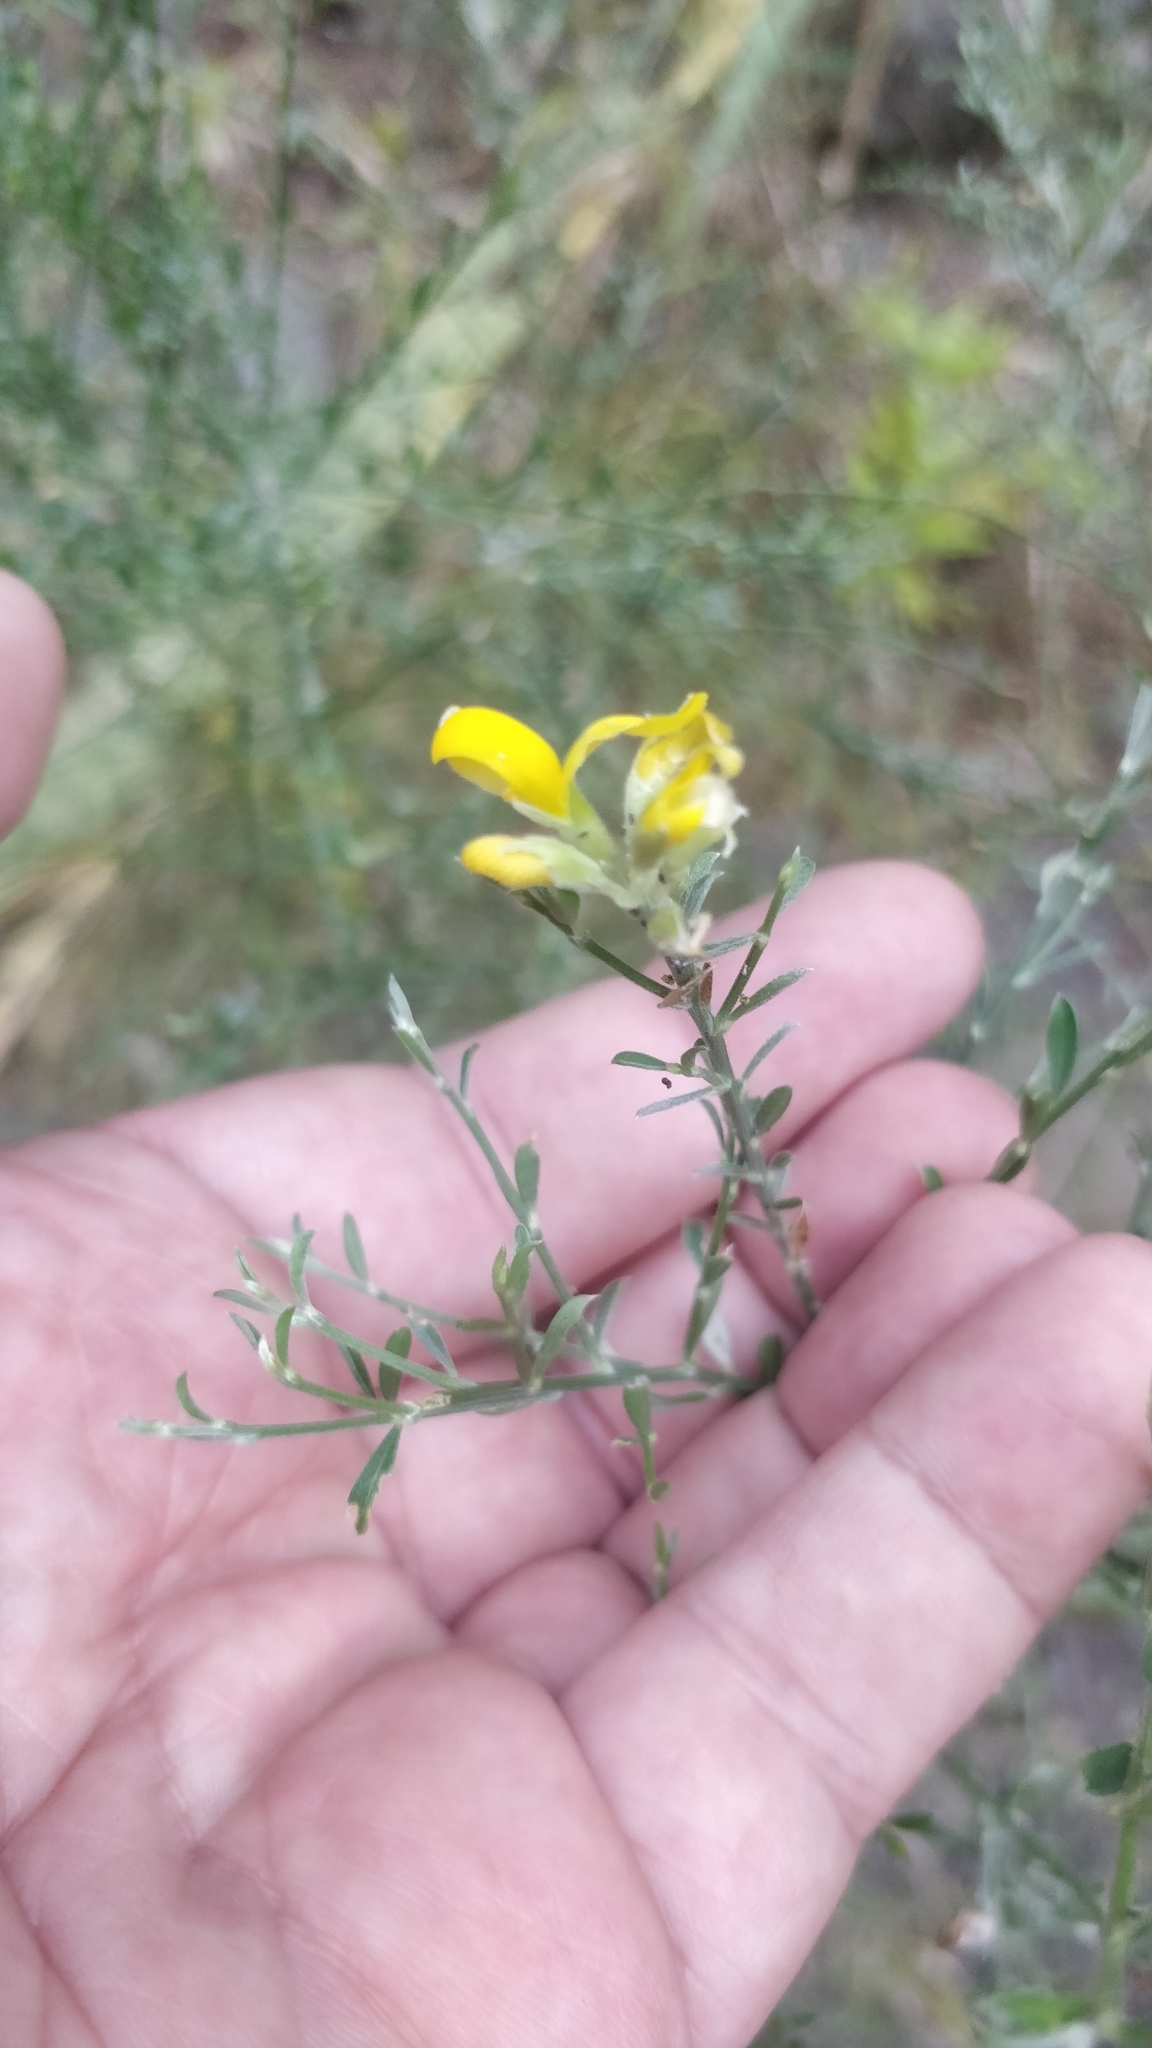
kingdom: Plantae
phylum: Tracheophyta
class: Magnoliopsida
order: Fabales
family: Fabaceae
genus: Genista
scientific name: Genista tenera
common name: Madeira broom
